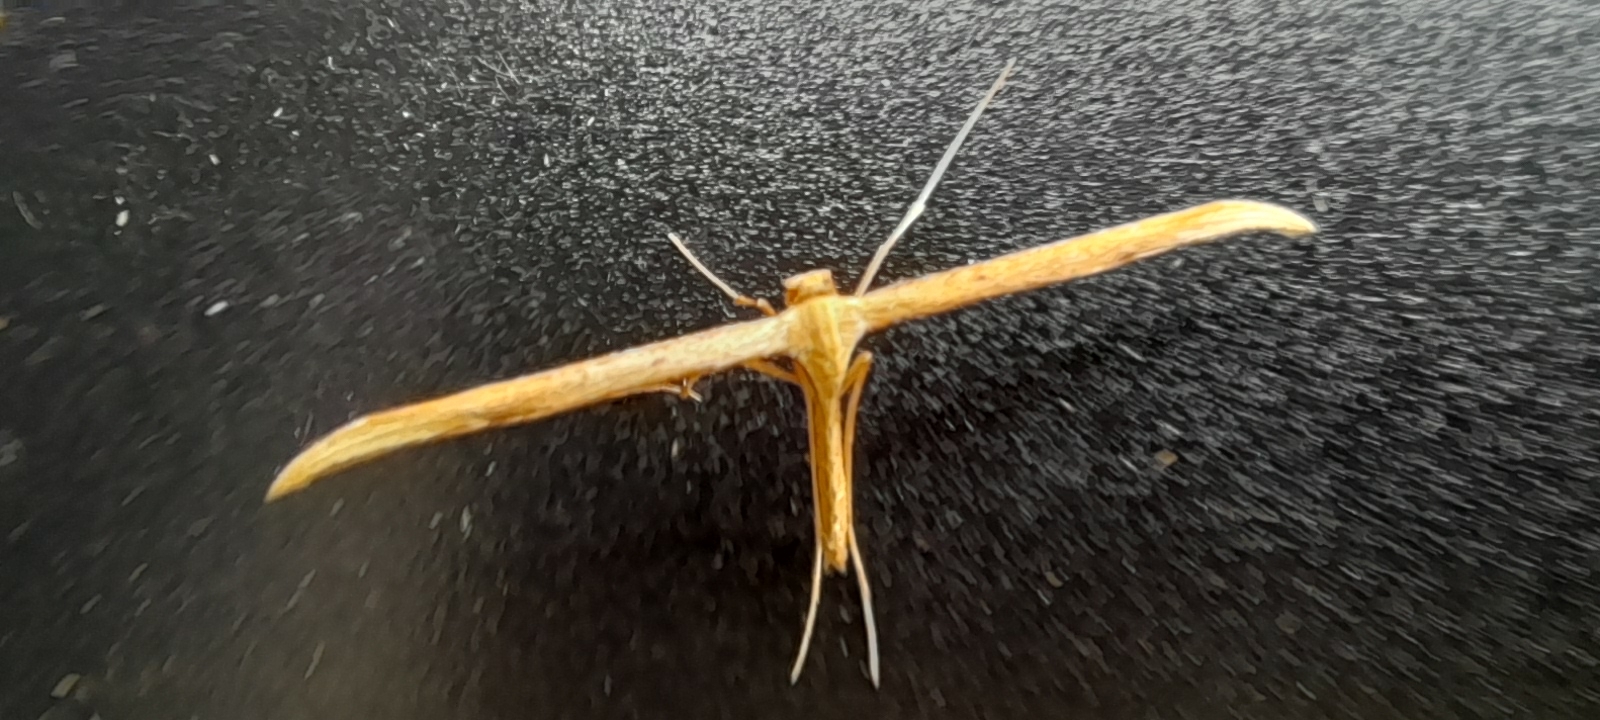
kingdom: Animalia
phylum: Arthropoda
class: Insecta
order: Lepidoptera
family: Pterophoridae
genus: Emmelina
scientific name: Emmelina monodactyla
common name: Common plume
